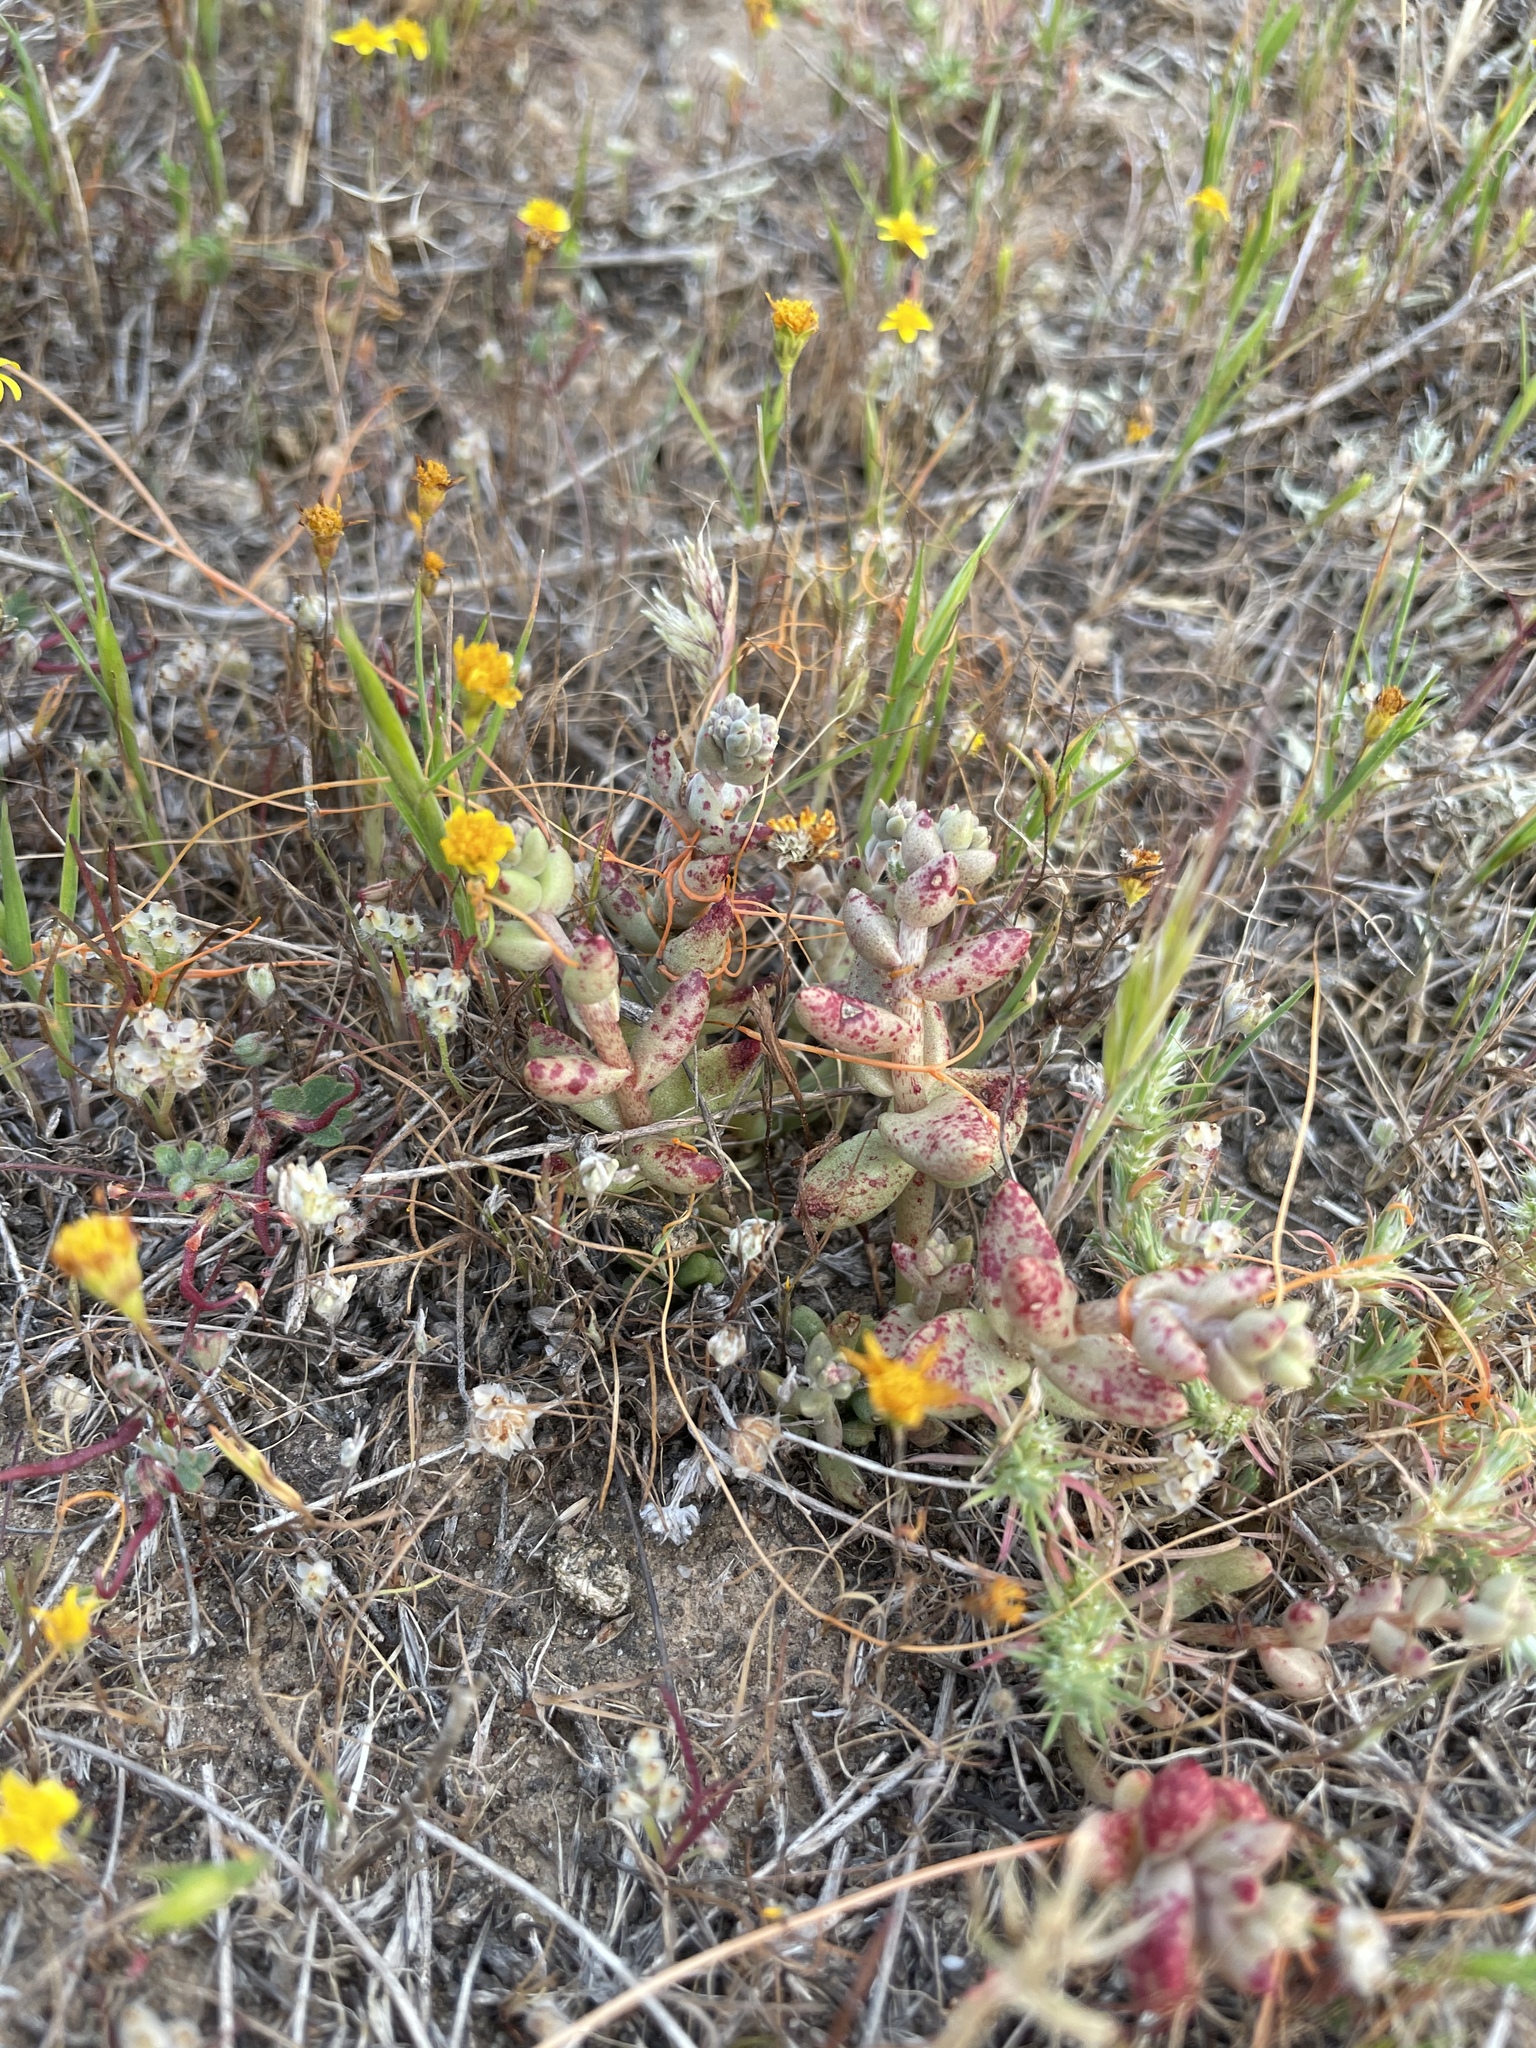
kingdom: Plantae
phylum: Tracheophyta
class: Magnoliopsida
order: Saxifragales
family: Crassulaceae
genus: Dudleya
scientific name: Dudleya blochmaniae
